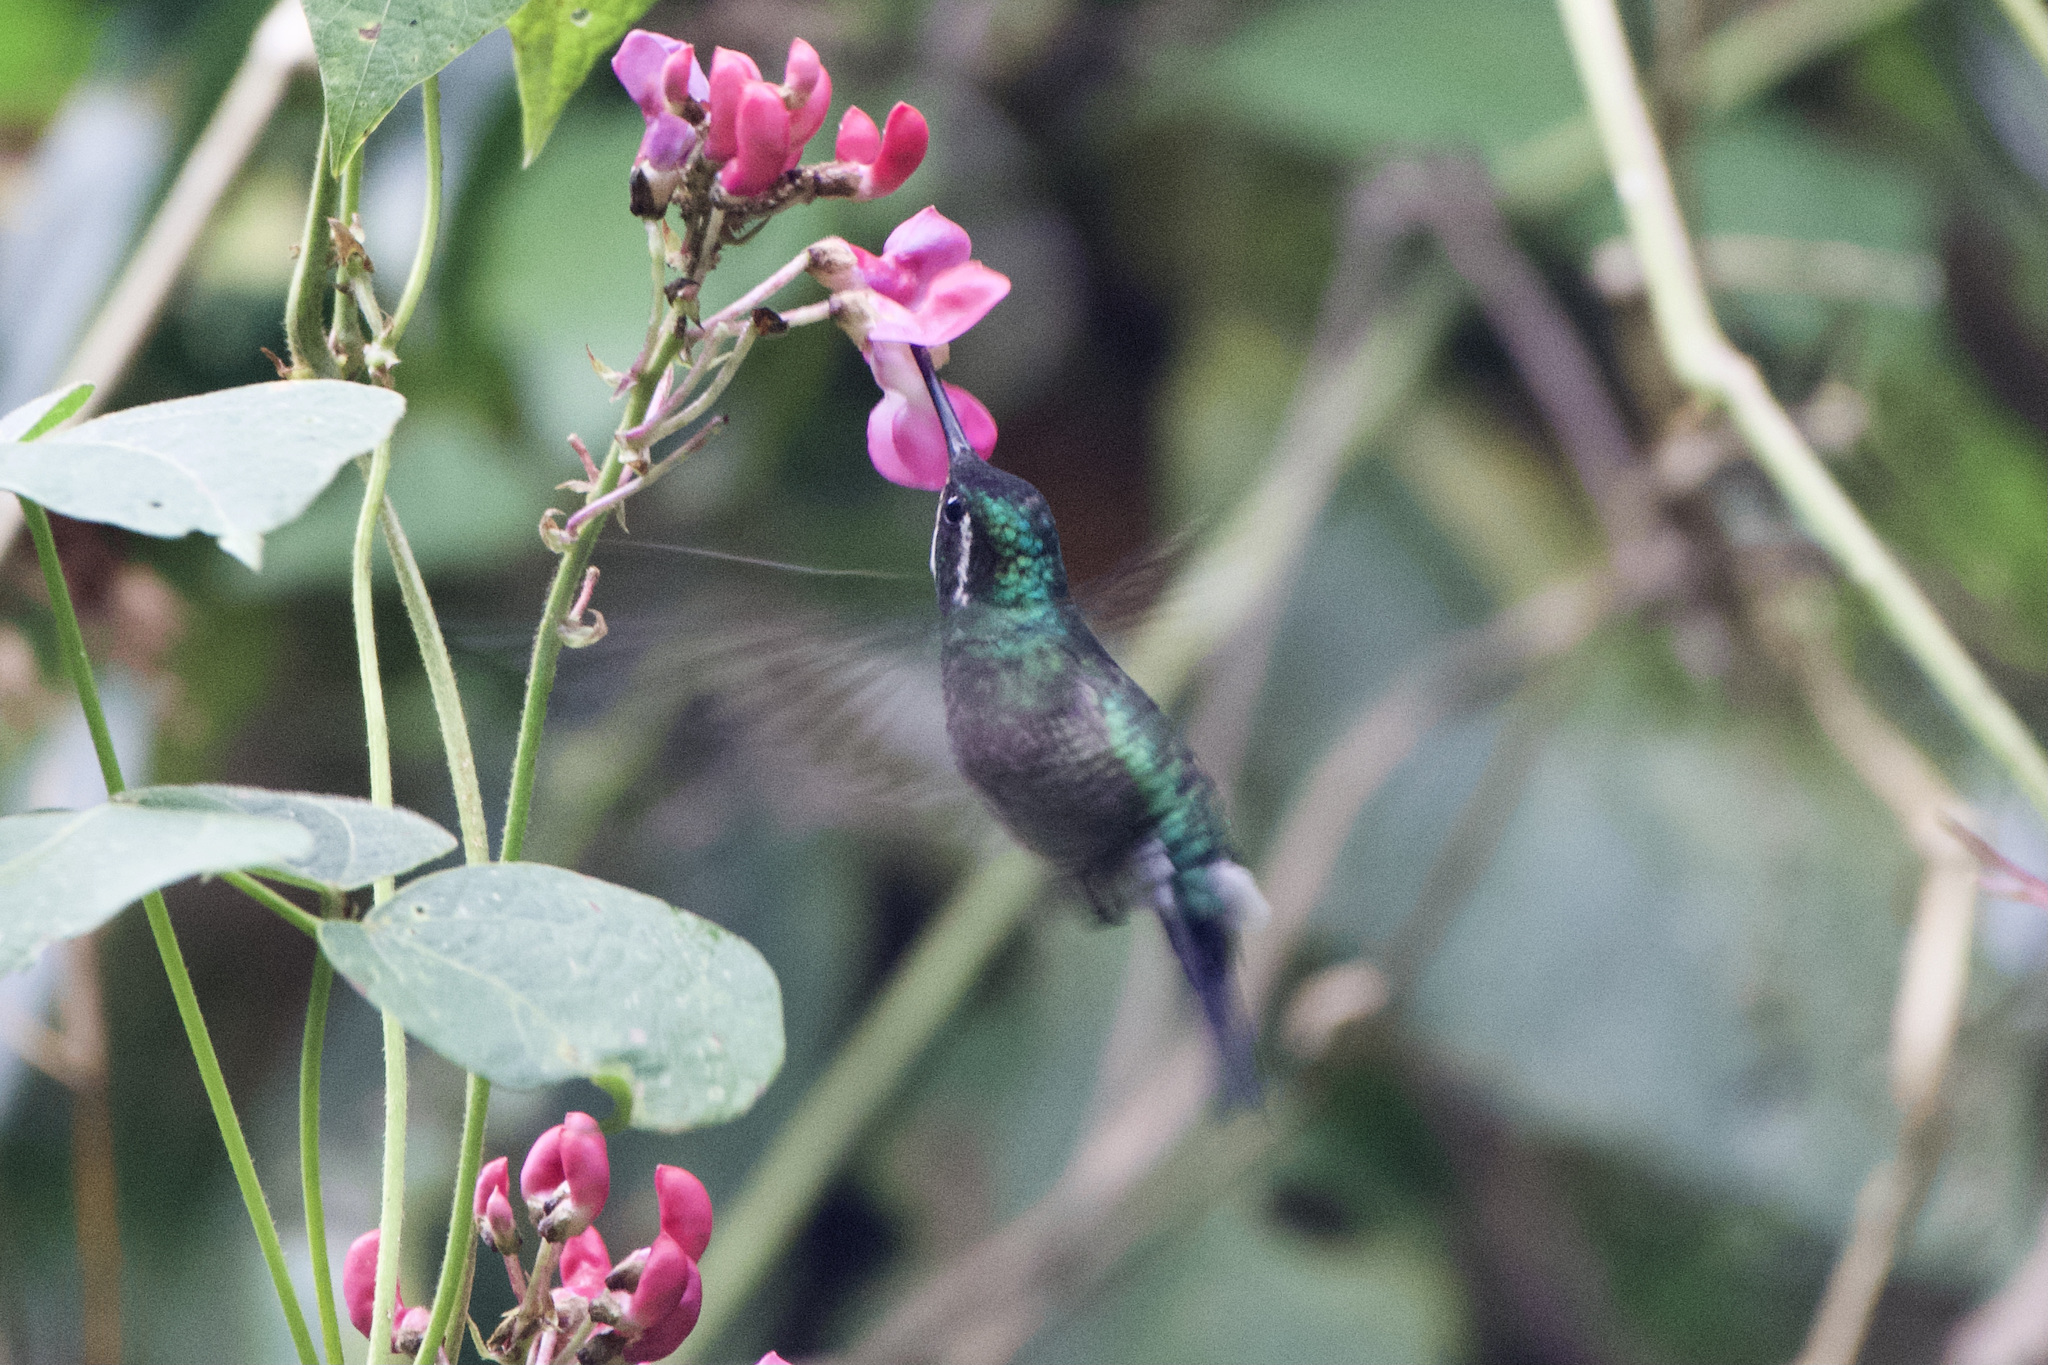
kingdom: Animalia
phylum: Chordata
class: Aves
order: Apodiformes
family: Trochilidae
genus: Lampornis
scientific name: Lampornis castaneoventris
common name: White-throated mountain-gem
